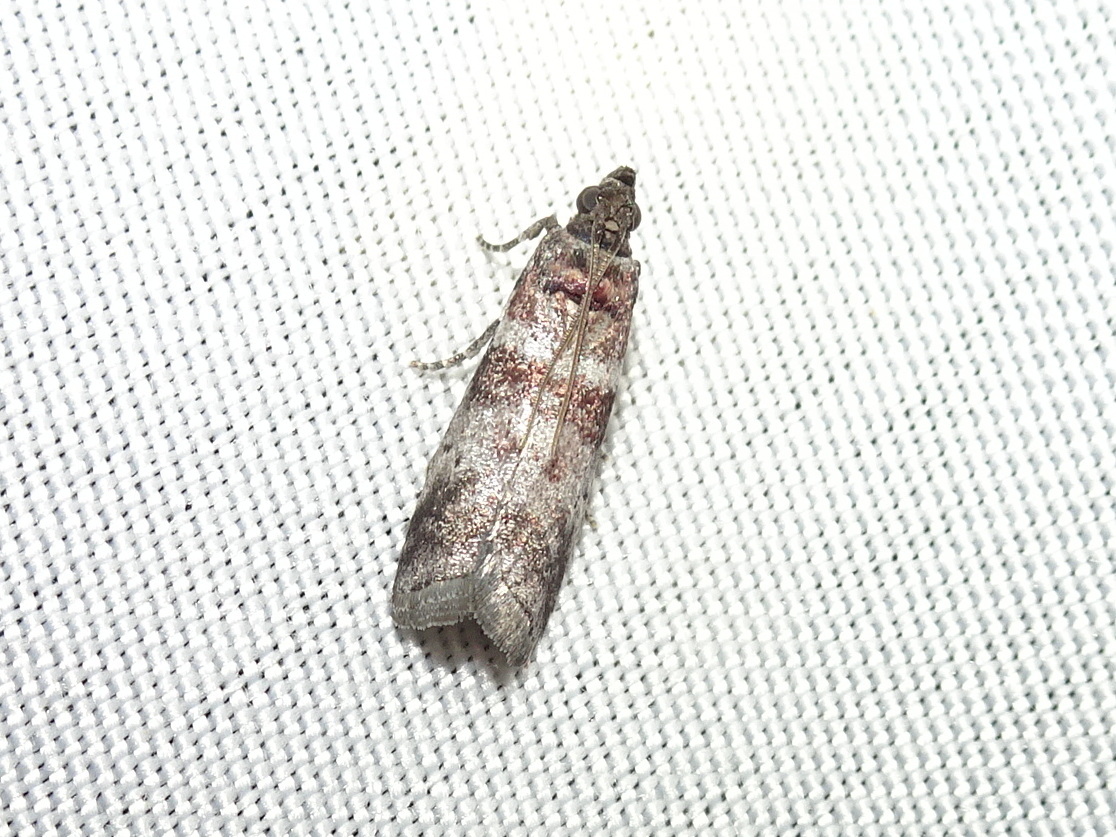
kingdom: Animalia
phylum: Arthropoda
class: Insecta
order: Lepidoptera
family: Pyralidae
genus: Sciota
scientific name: Sciota uvinella
